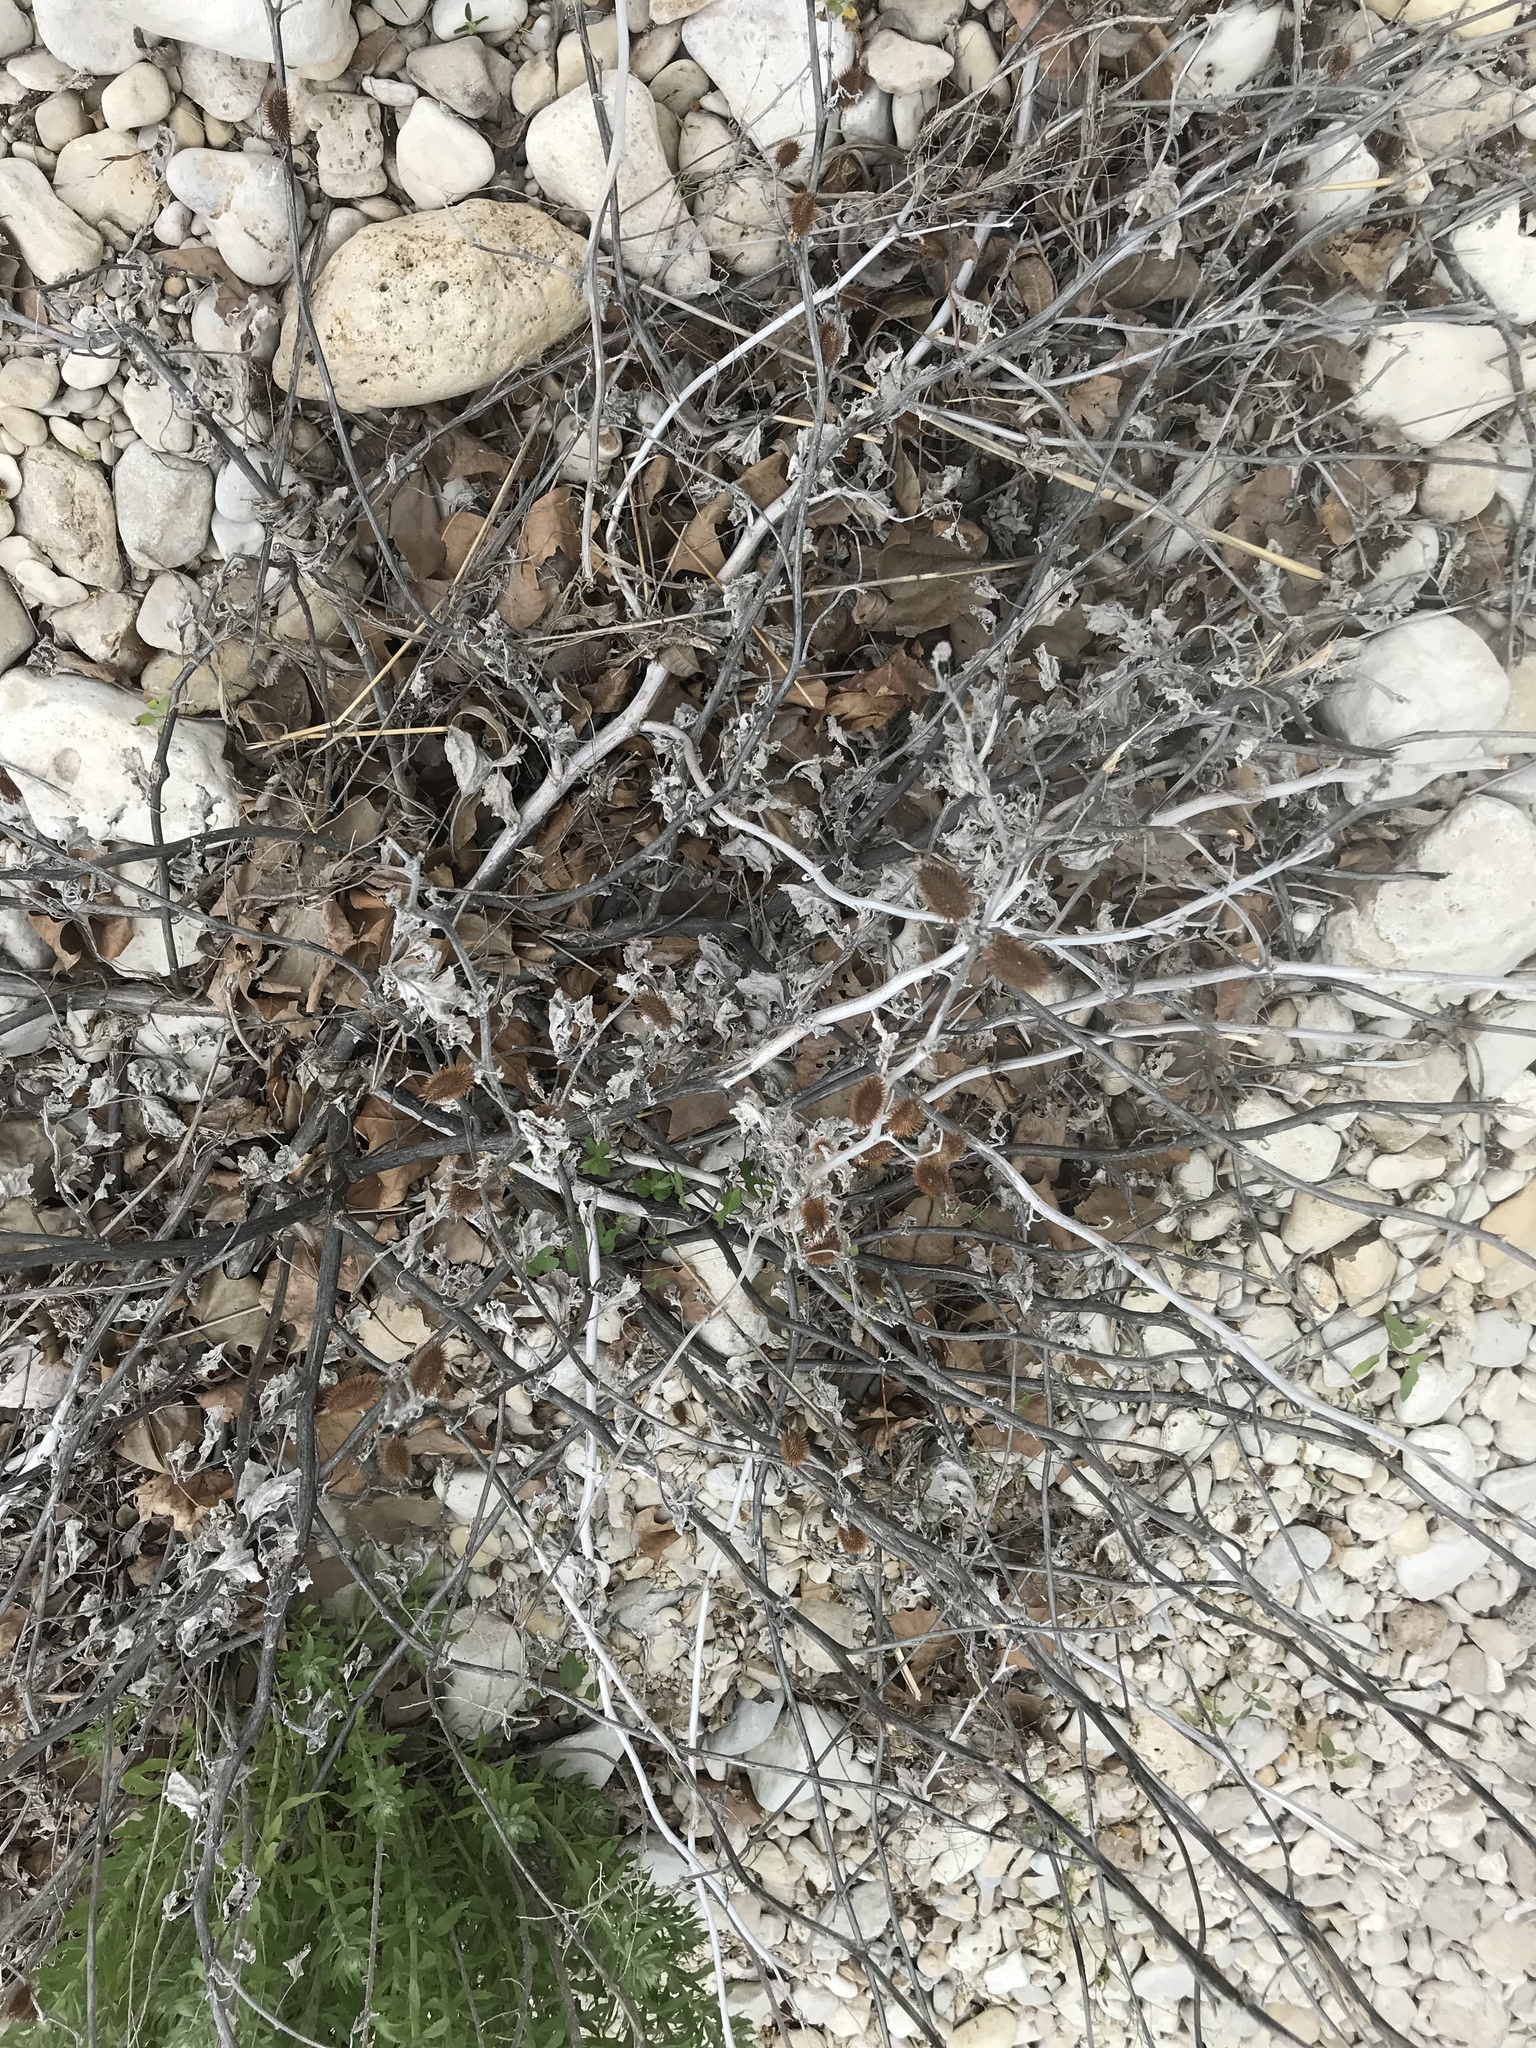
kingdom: Plantae
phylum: Tracheophyta
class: Magnoliopsida
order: Asterales
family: Asteraceae
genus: Xanthium
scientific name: Xanthium strumarium
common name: Rough cocklebur
